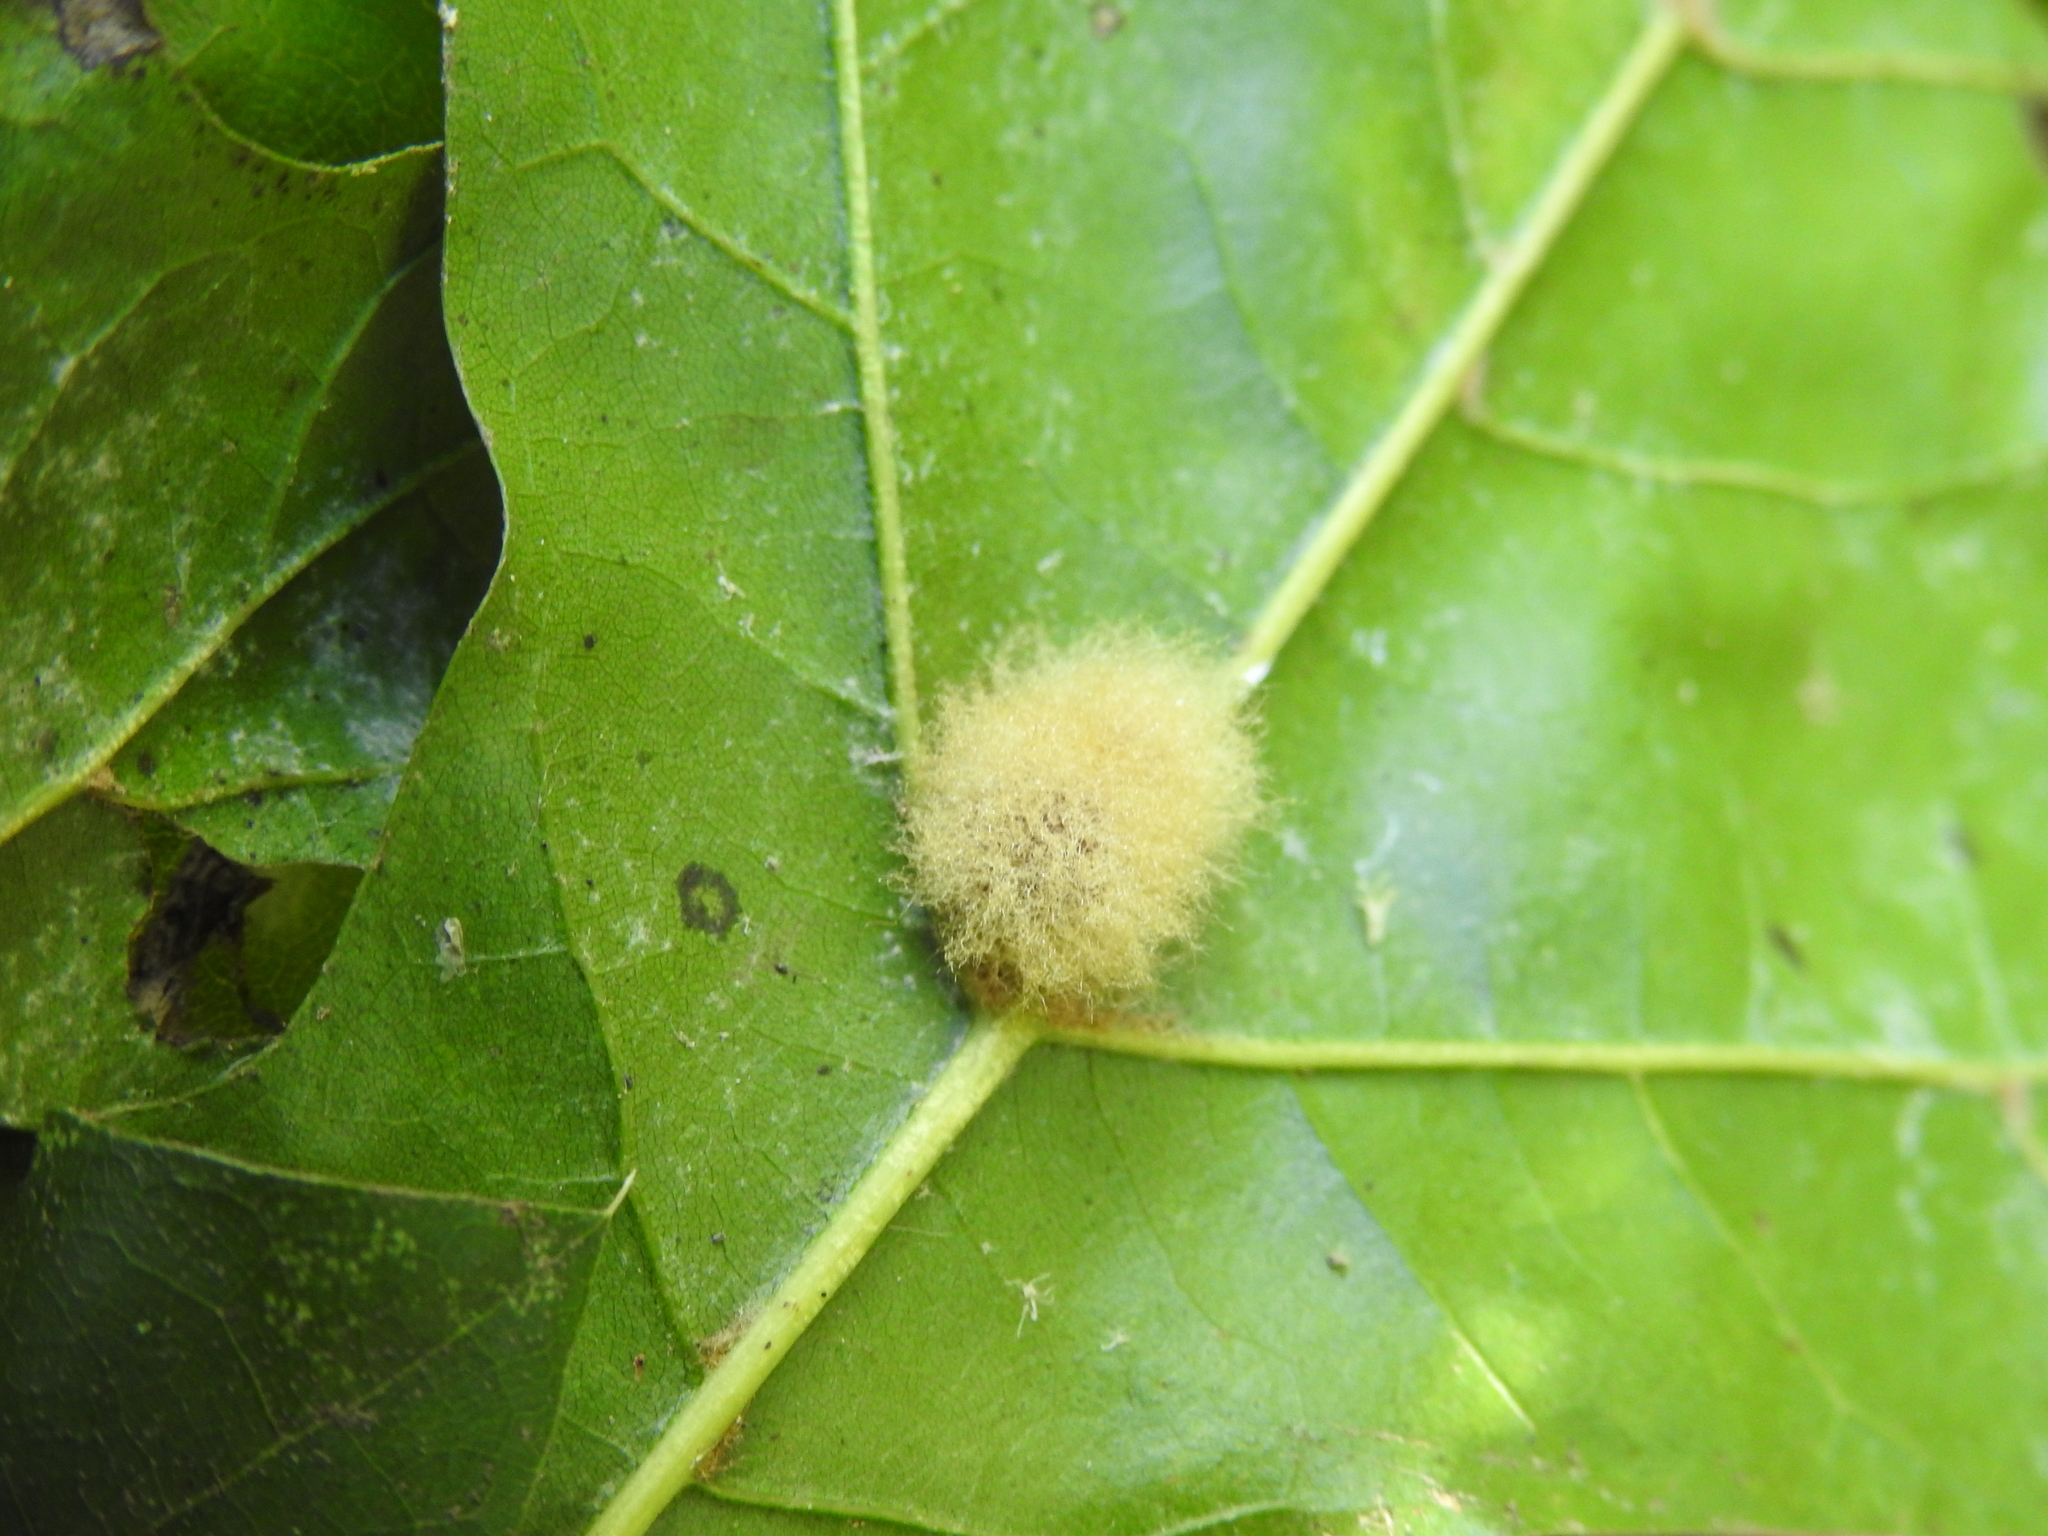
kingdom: Animalia
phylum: Arthropoda
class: Insecta
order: Hymenoptera
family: Cynipidae
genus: Callirhytis
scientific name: Callirhytis
